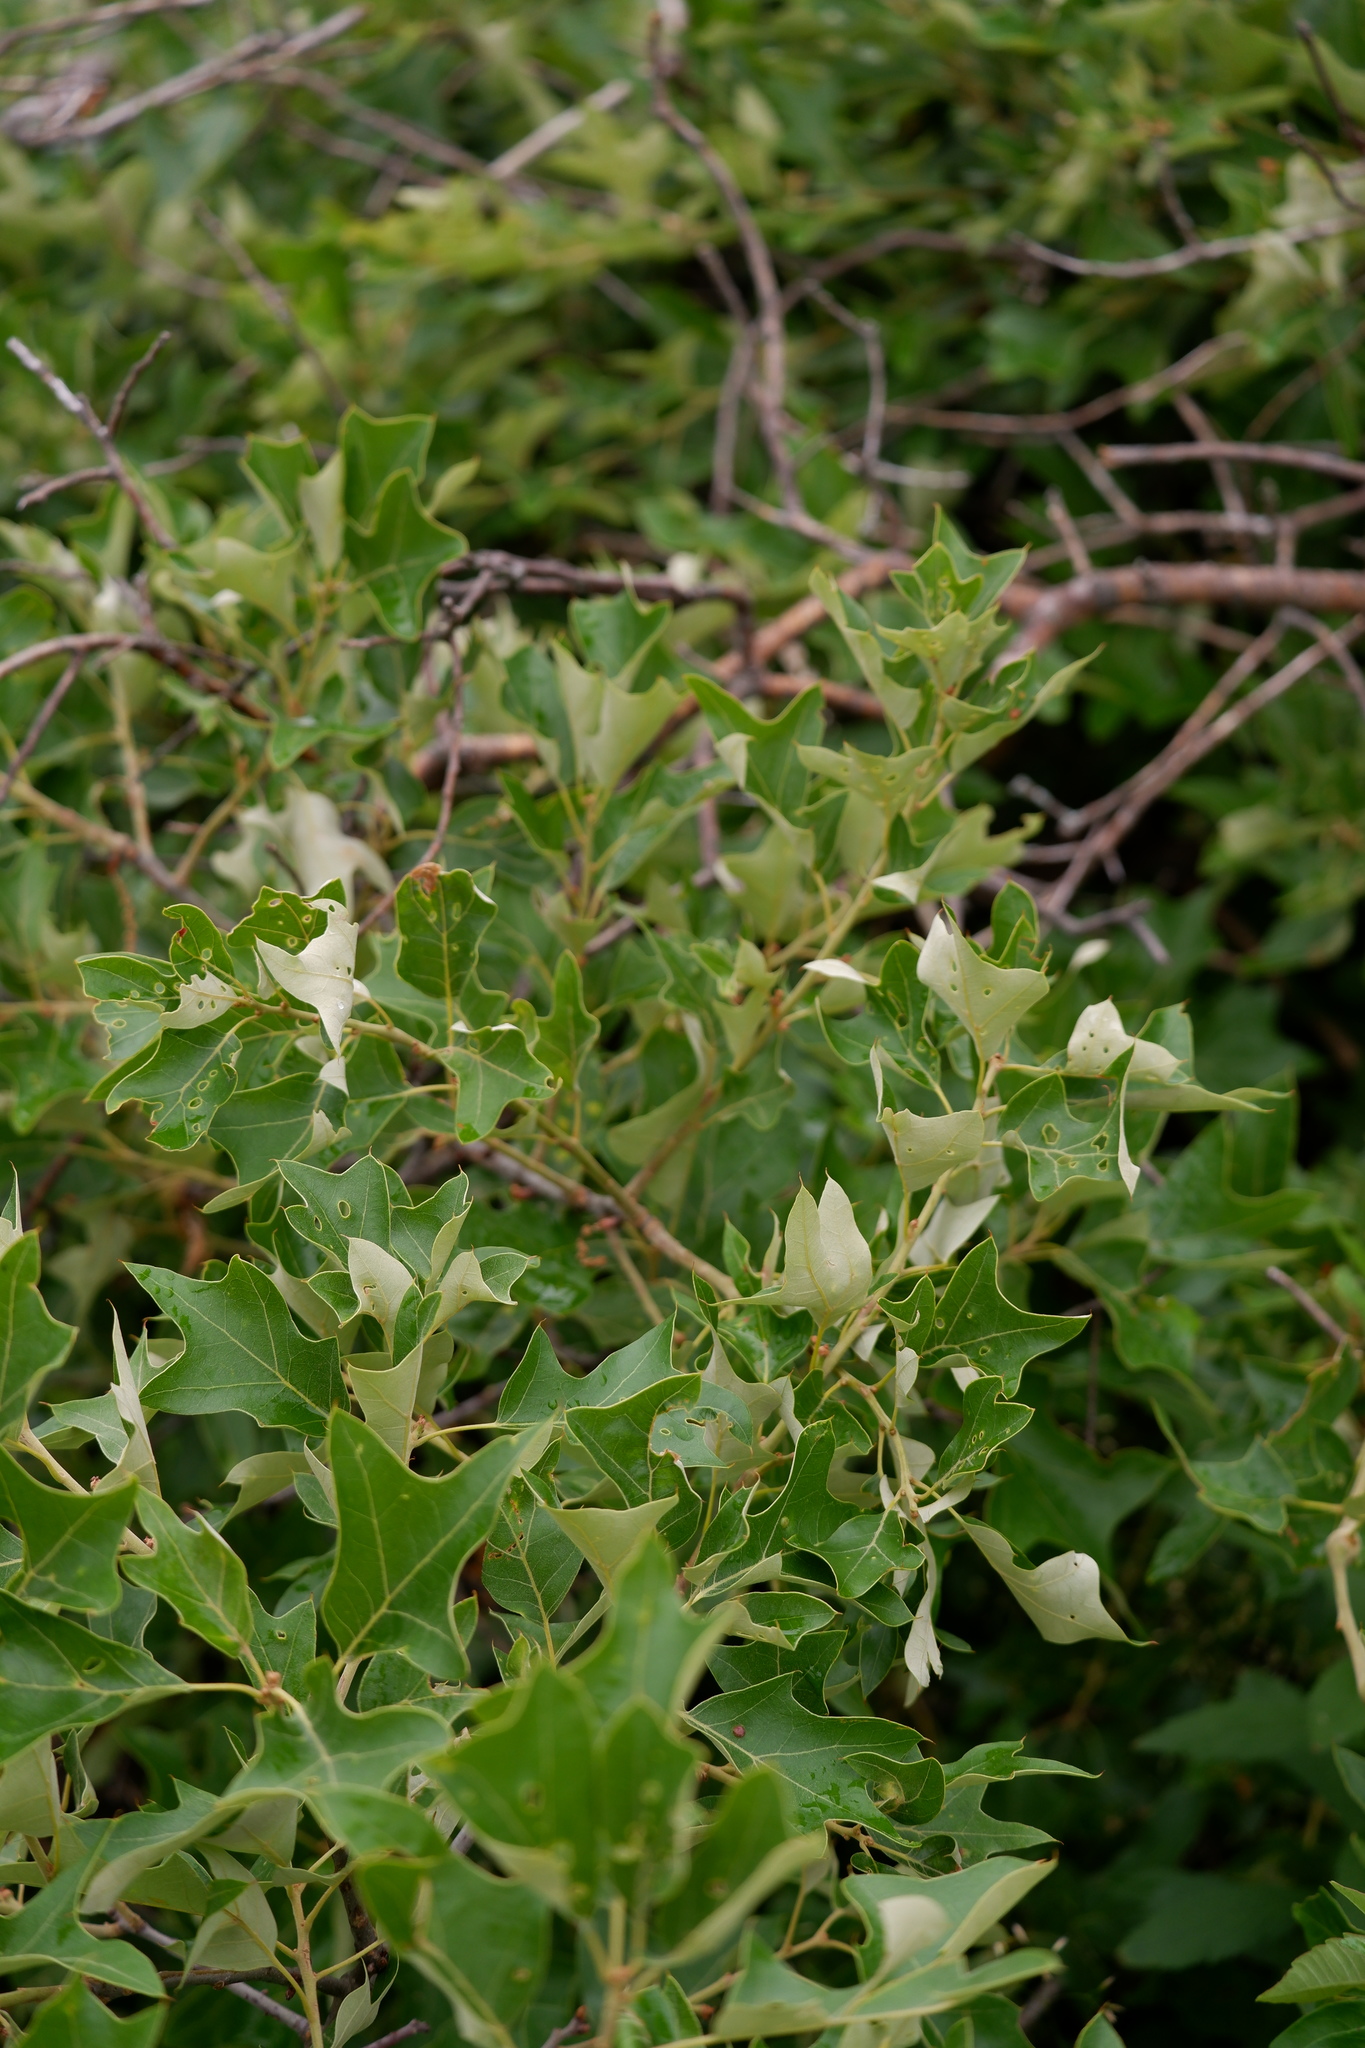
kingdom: Plantae
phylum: Tracheophyta
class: Magnoliopsida
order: Fagales
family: Fagaceae
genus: Quercus
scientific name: Quercus ilicifolia
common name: Bear oak
